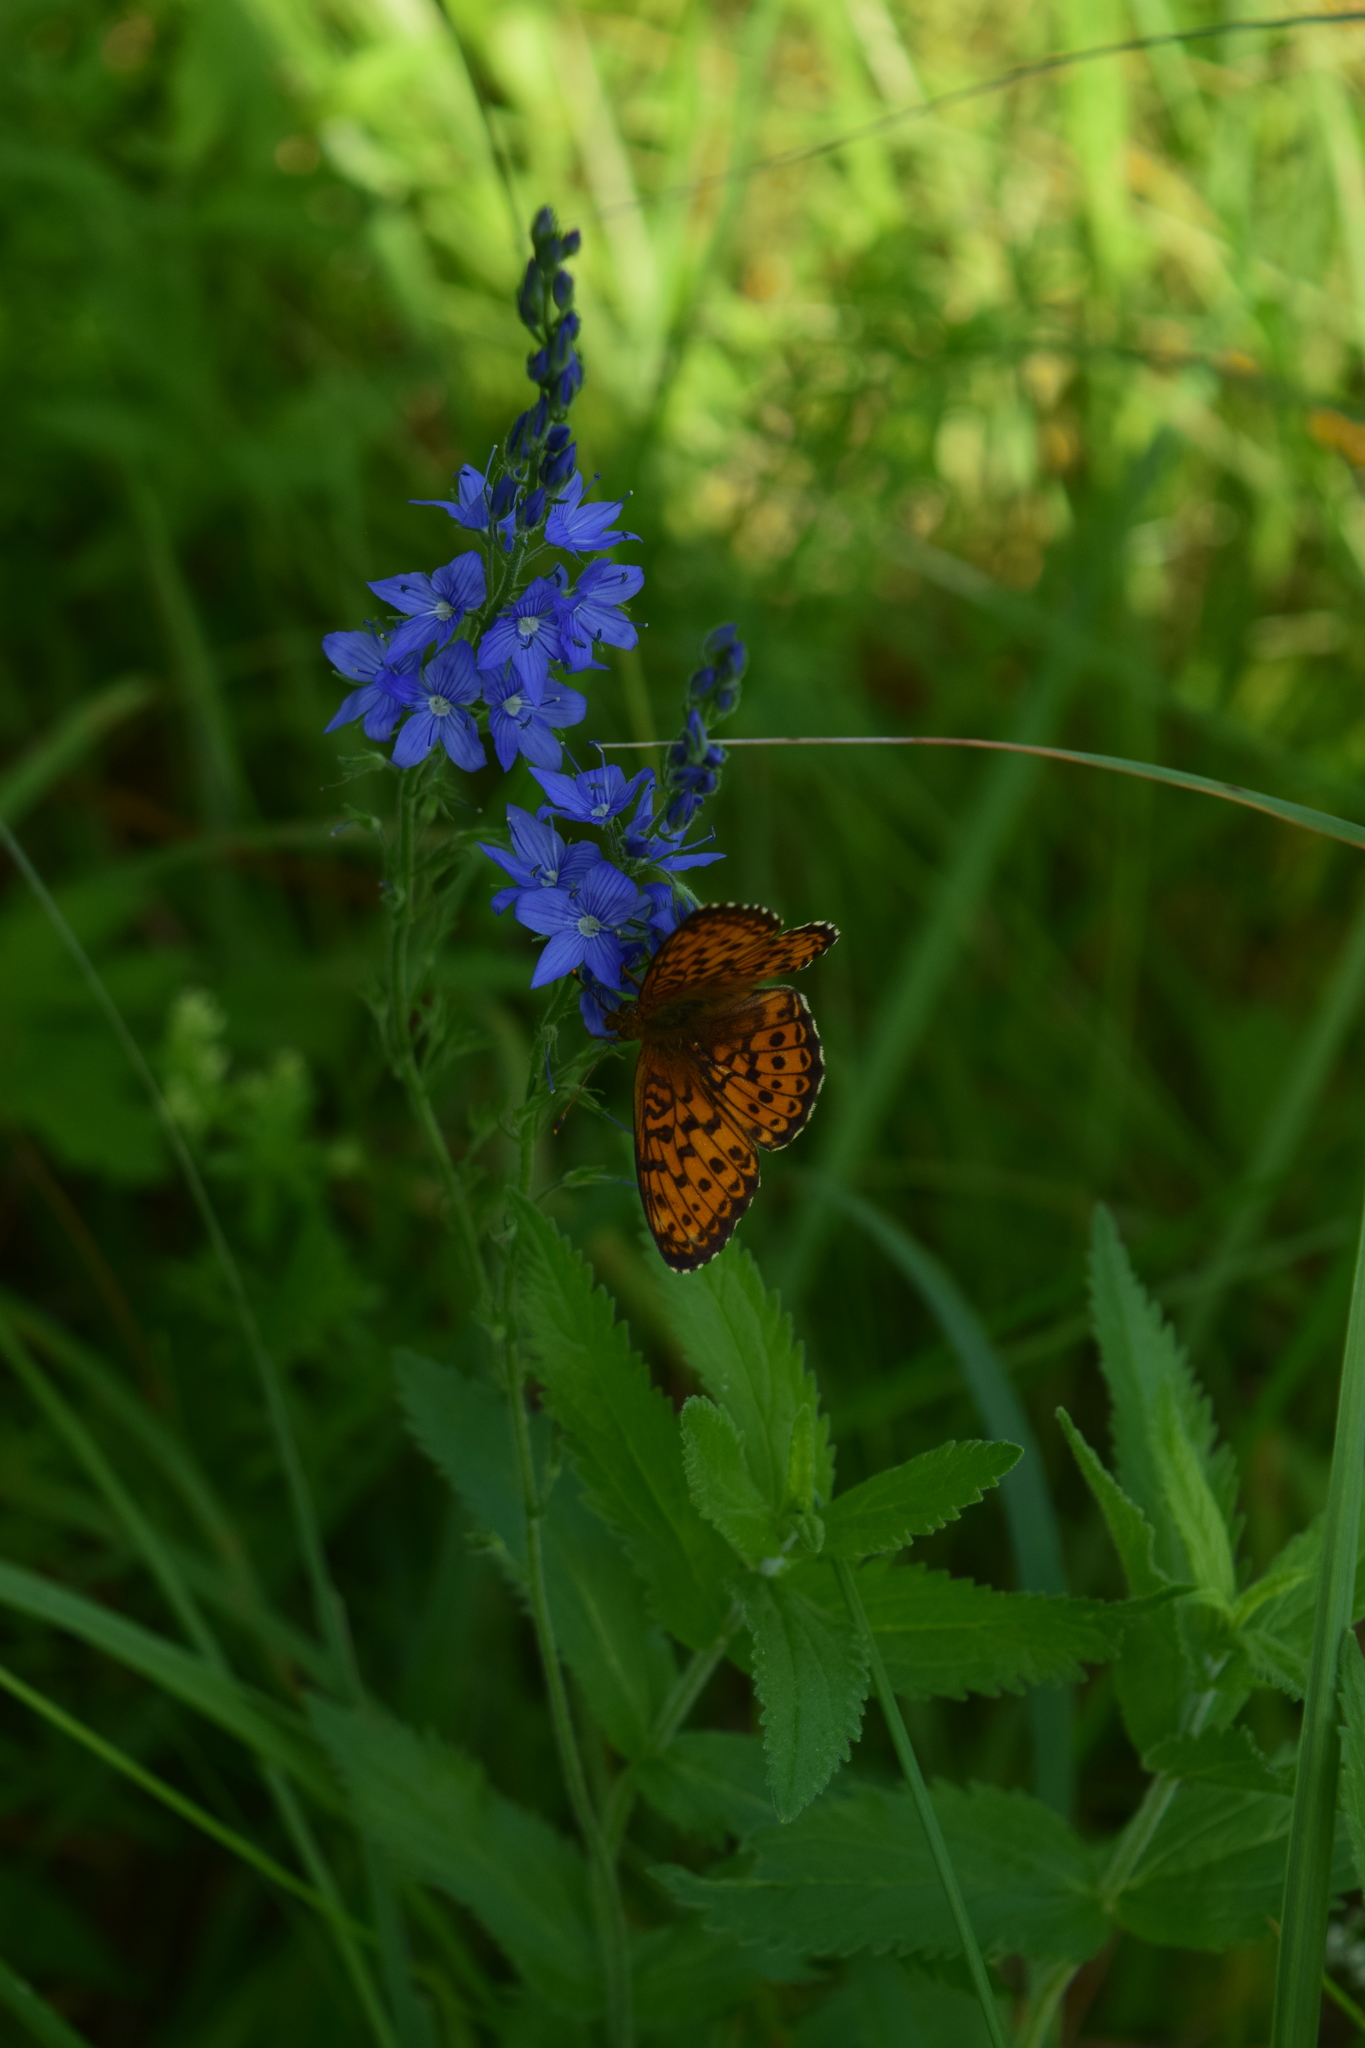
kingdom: Animalia
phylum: Arthropoda
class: Insecta
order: Lepidoptera
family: Nymphalidae
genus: Brenthis
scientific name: Brenthis ino
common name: Lesser marbled fritillary
